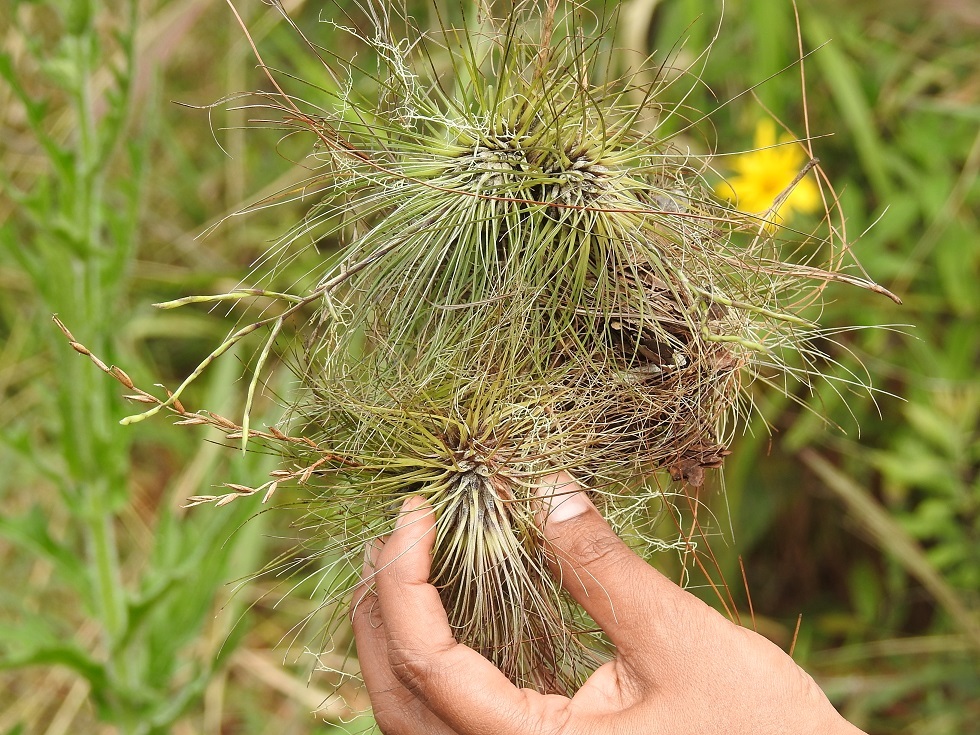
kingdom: Plantae
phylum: Tracheophyta
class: Liliopsida
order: Poales
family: Bromeliaceae
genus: Tillandsia
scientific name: Tillandsia filifolia
